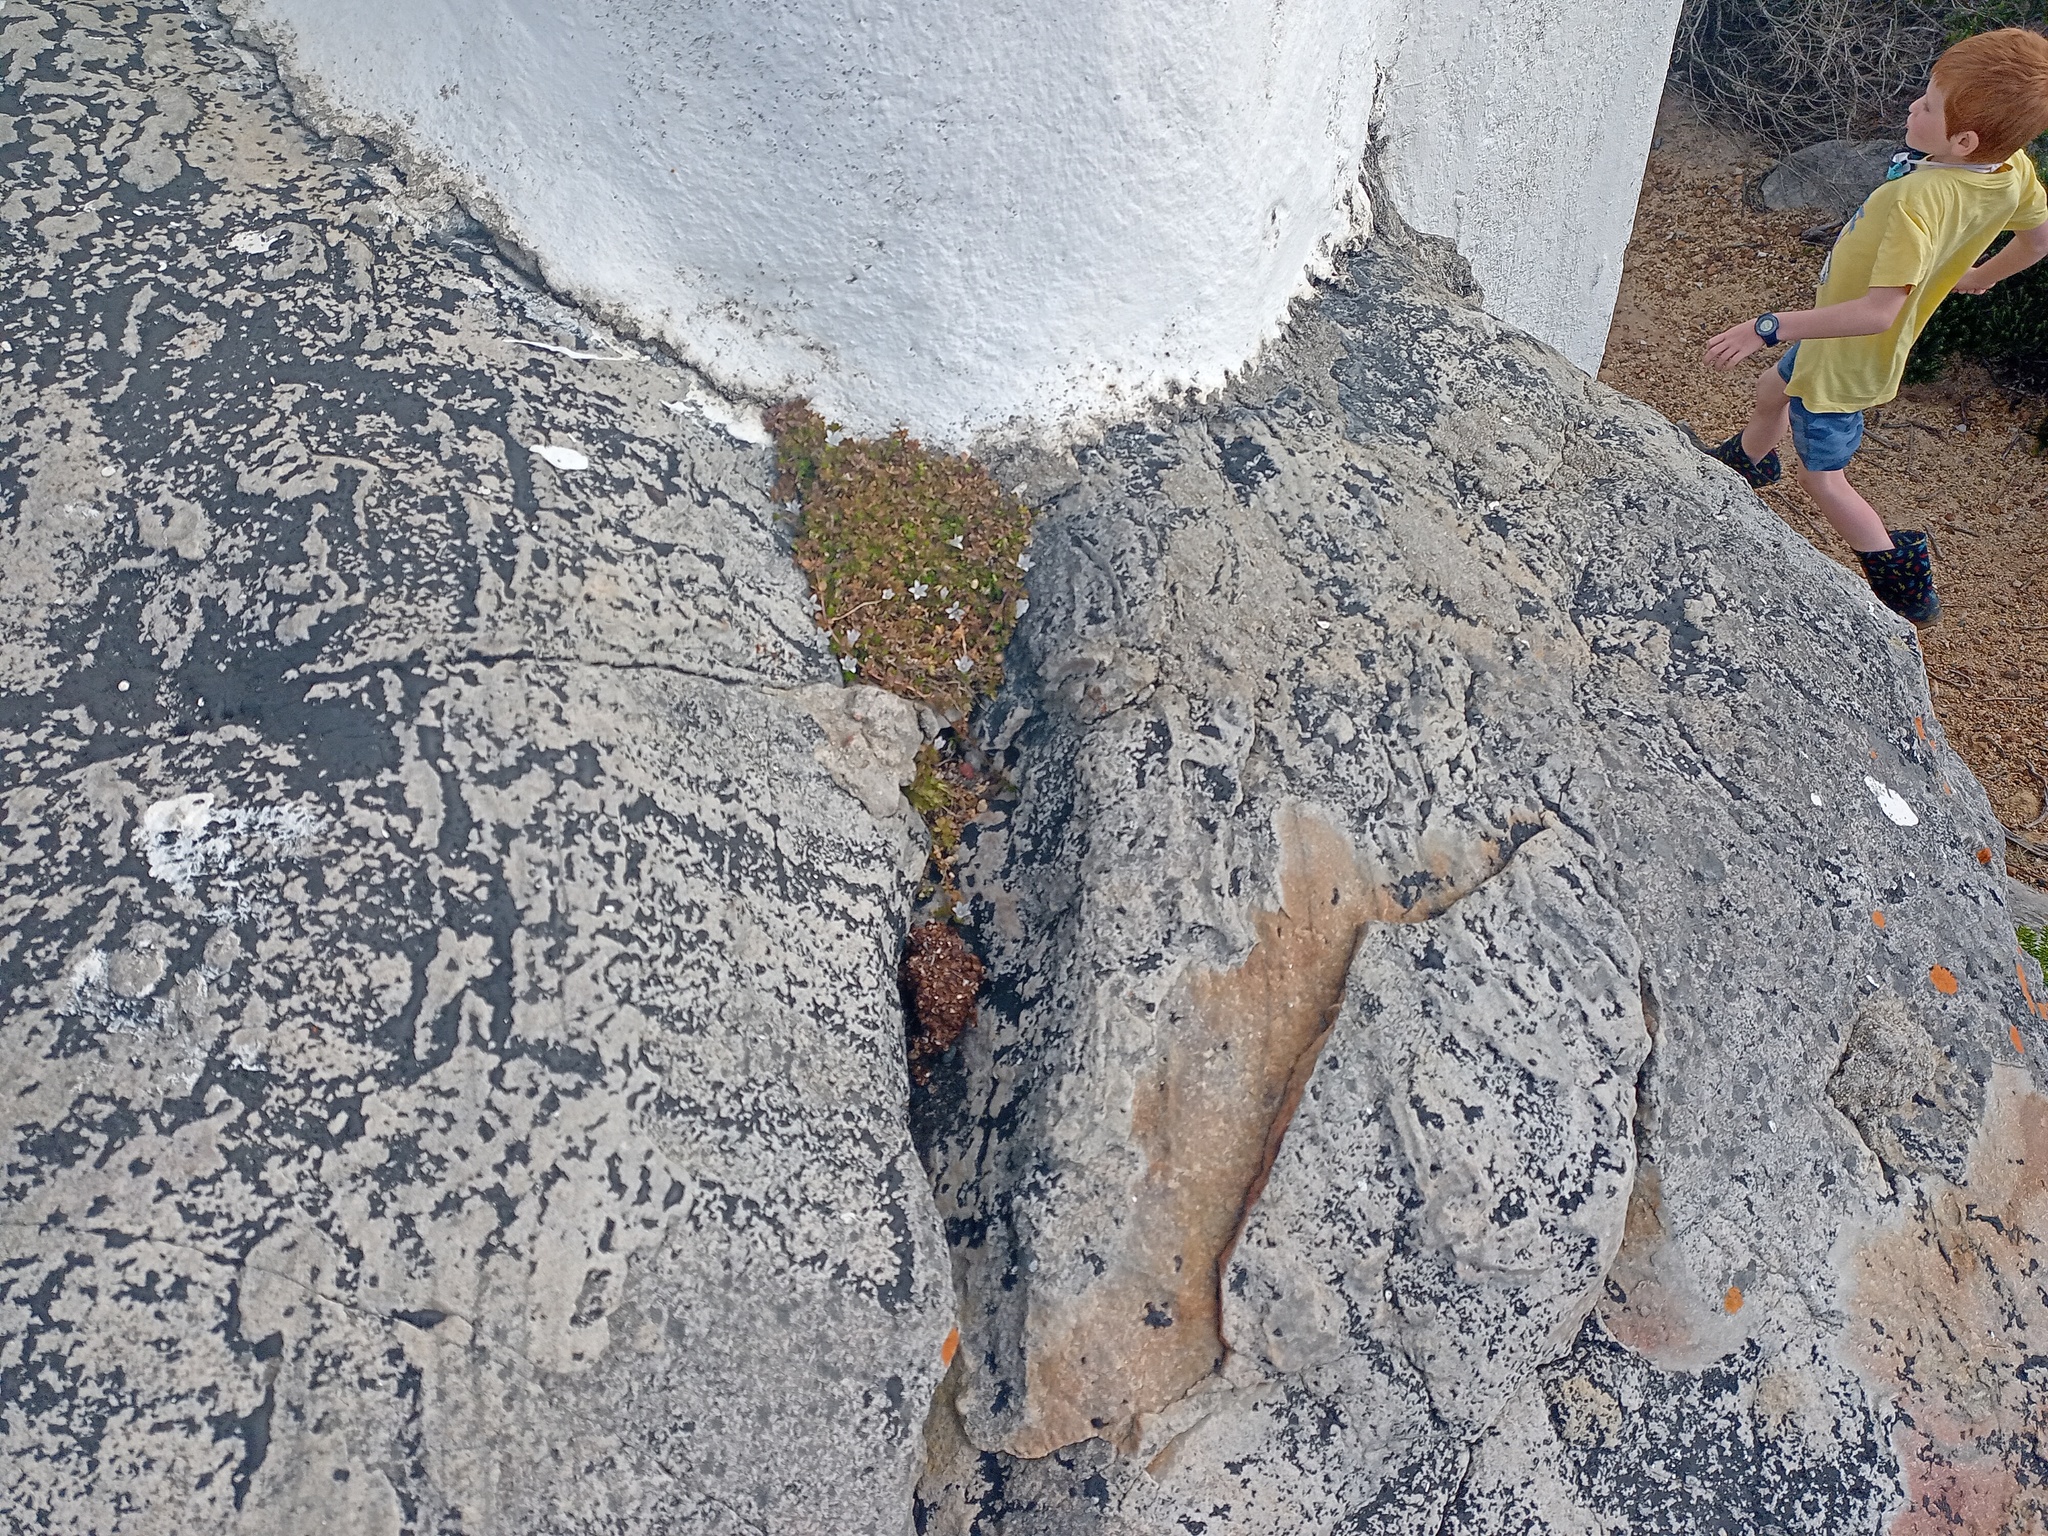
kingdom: Plantae
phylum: Tracheophyta
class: Magnoliopsida
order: Asterales
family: Campanulaceae
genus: Wahlenbergia
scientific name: Wahlenbergia procumbens
